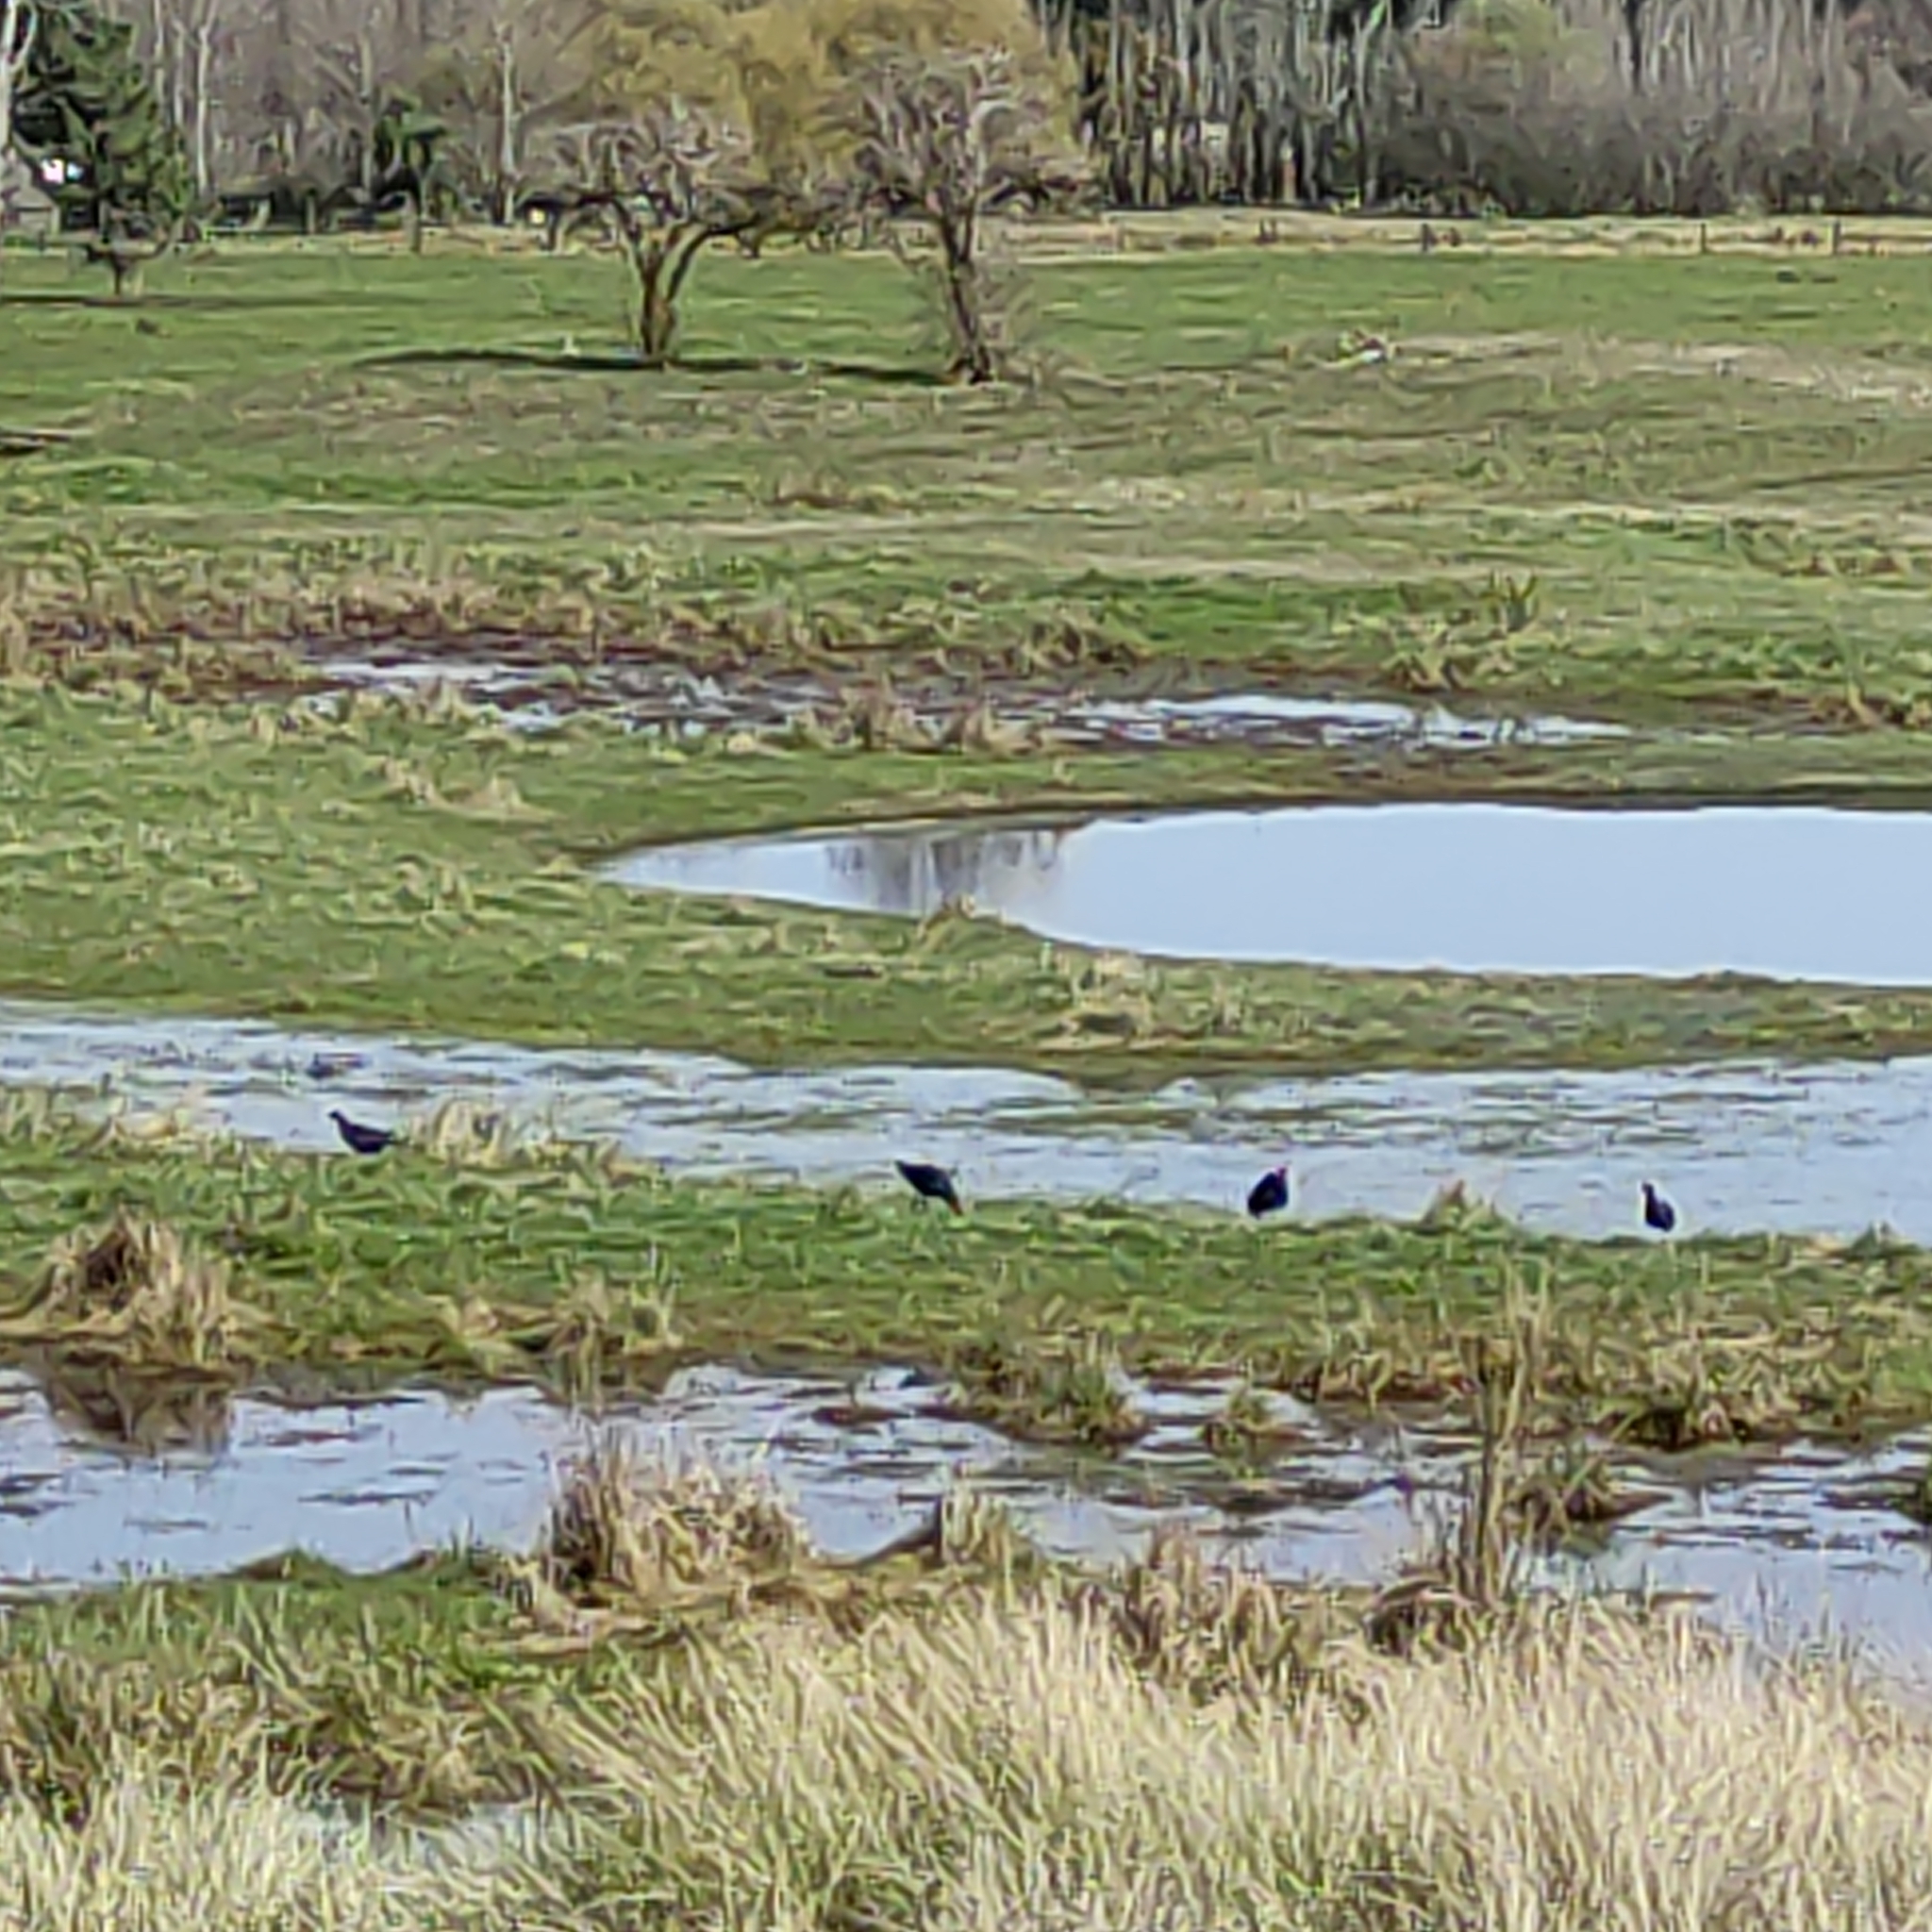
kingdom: Animalia
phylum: Chordata
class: Aves
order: Gruiformes
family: Rallidae
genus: Porphyrio
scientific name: Porphyrio melanotus
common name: Australasian swamphen
